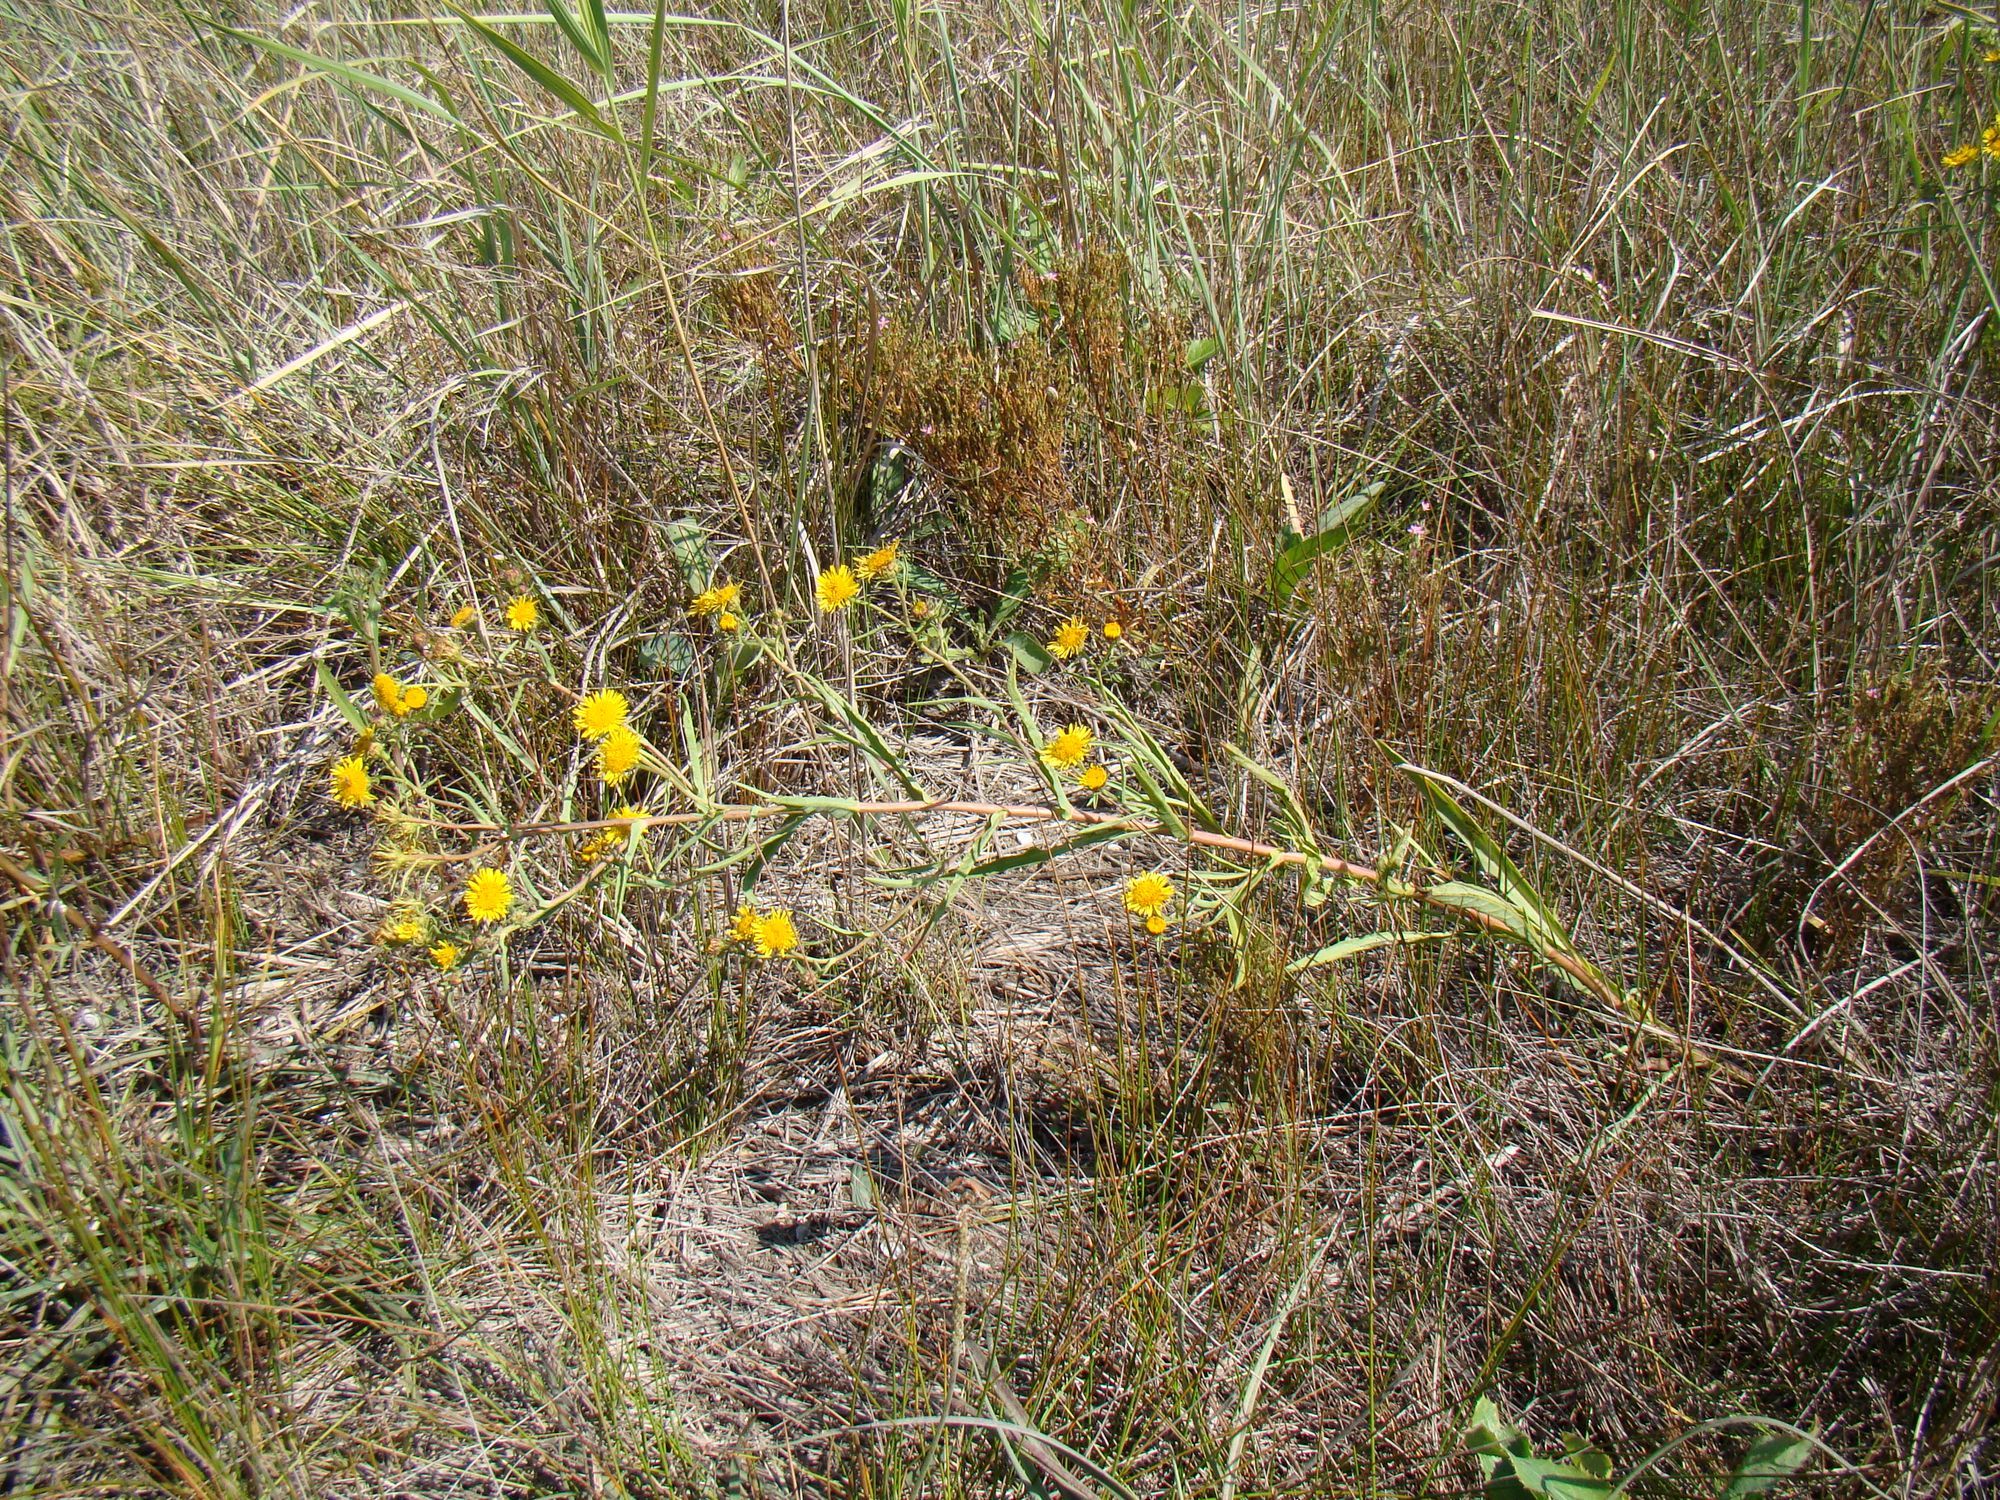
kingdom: Plantae
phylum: Tracheophyta
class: Magnoliopsida
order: Asterales
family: Asteraceae
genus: Pentanema
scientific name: Pentanema caspicum
